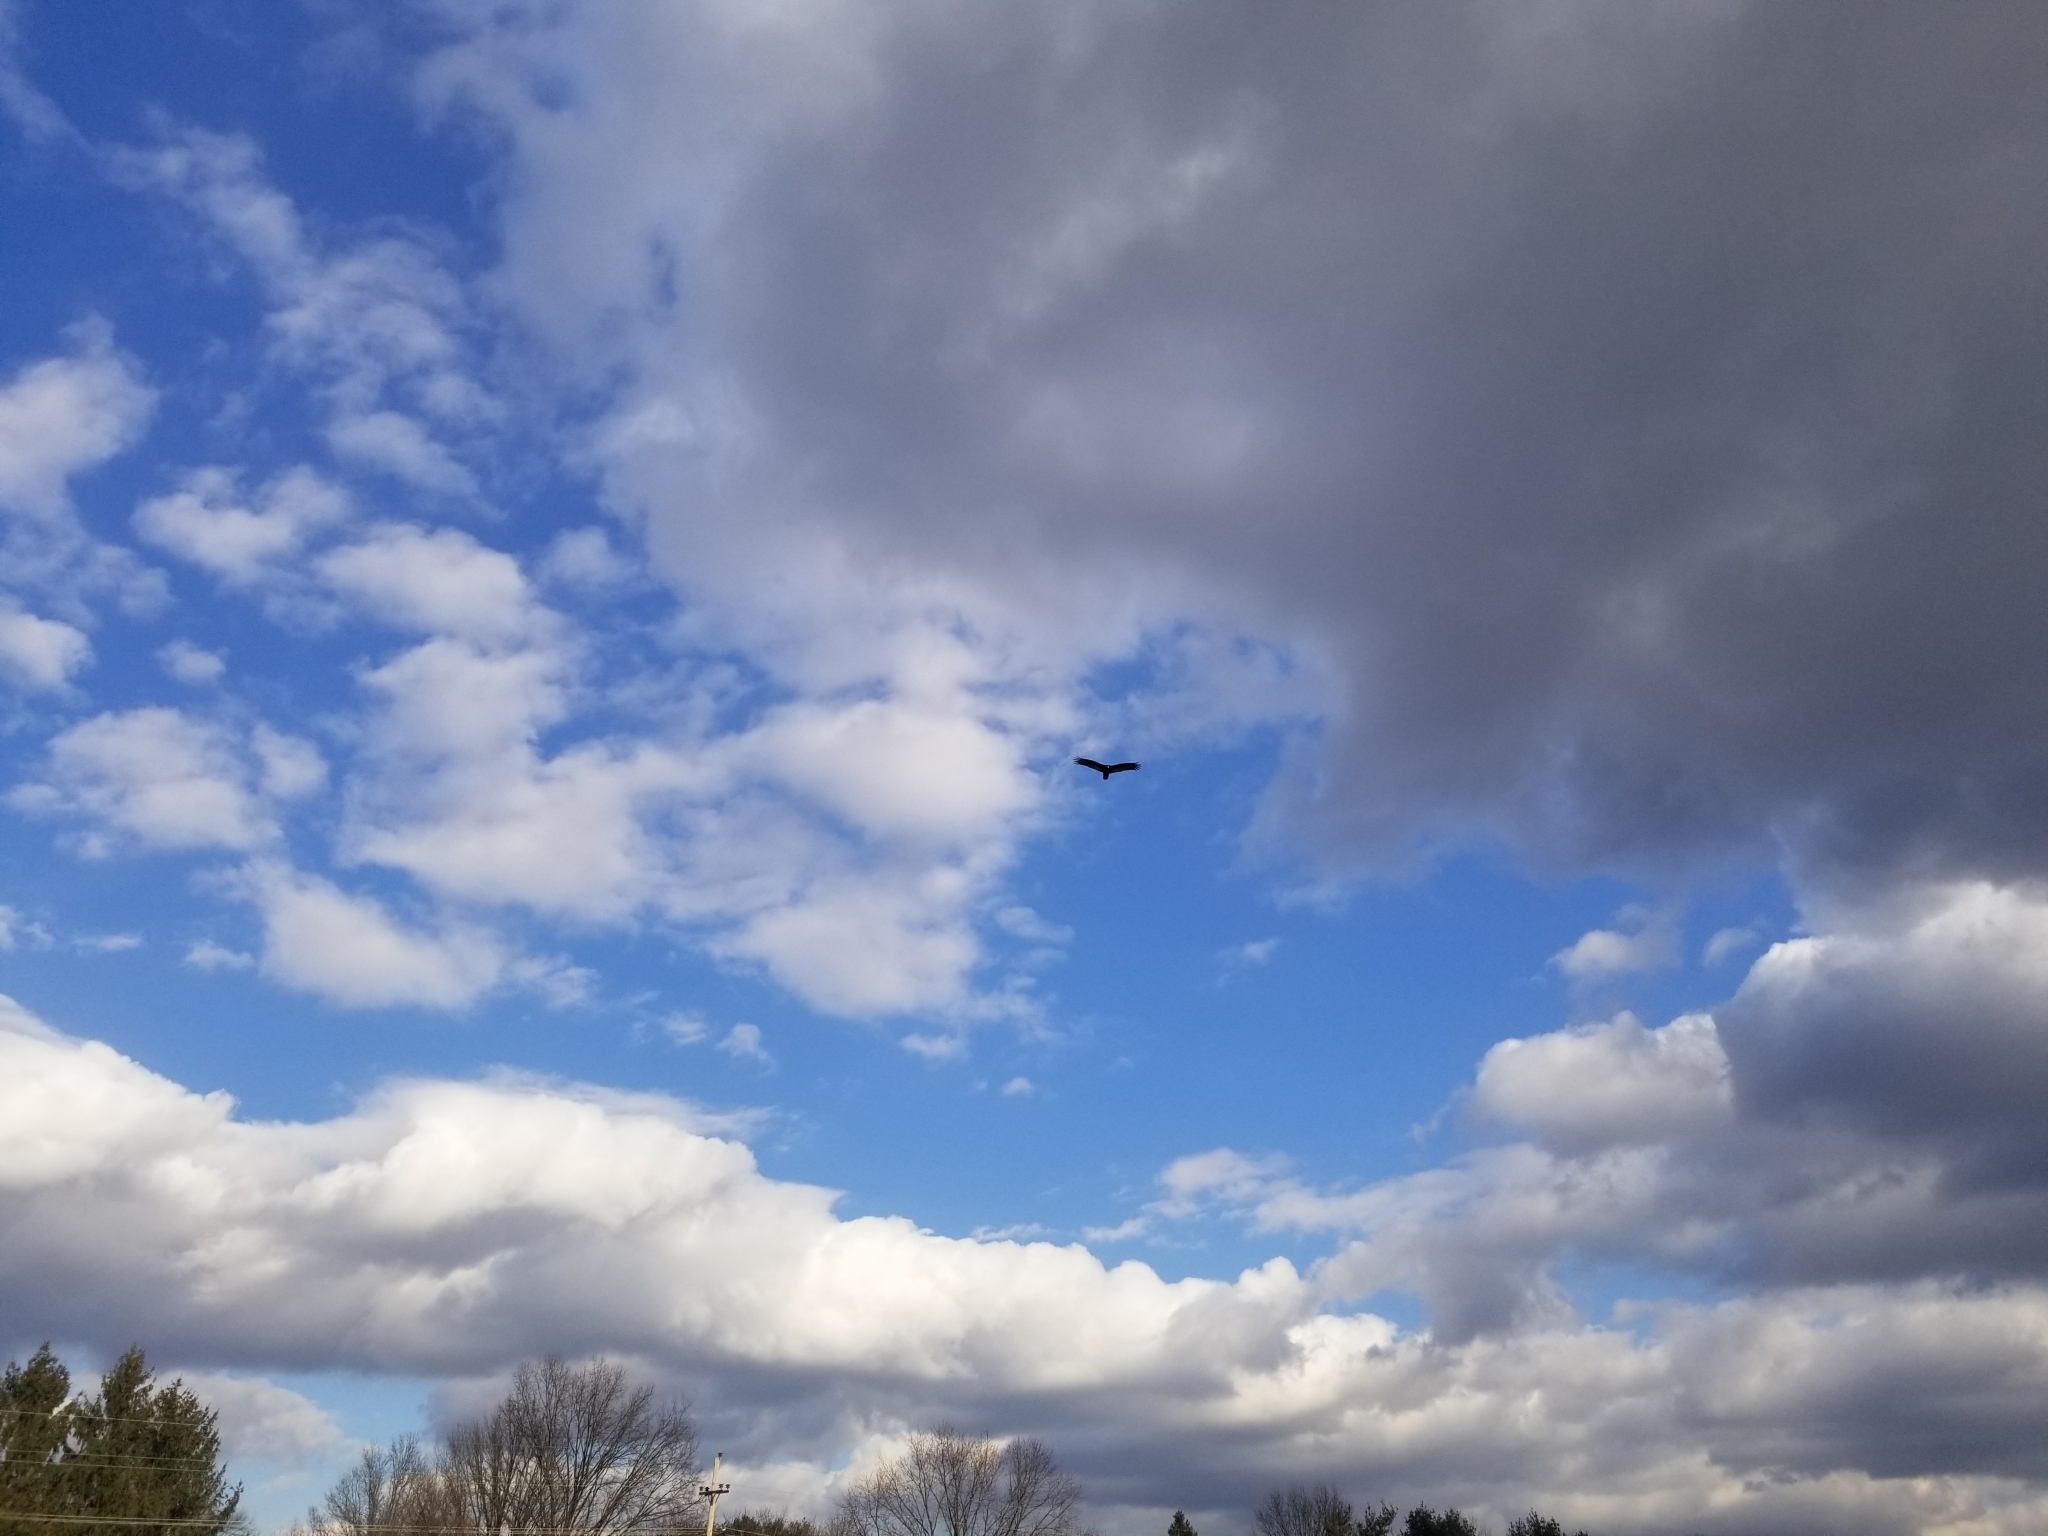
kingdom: Animalia
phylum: Chordata
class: Aves
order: Accipitriformes
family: Cathartidae
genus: Cathartes
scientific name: Cathartes aura
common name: Turkey vulture
